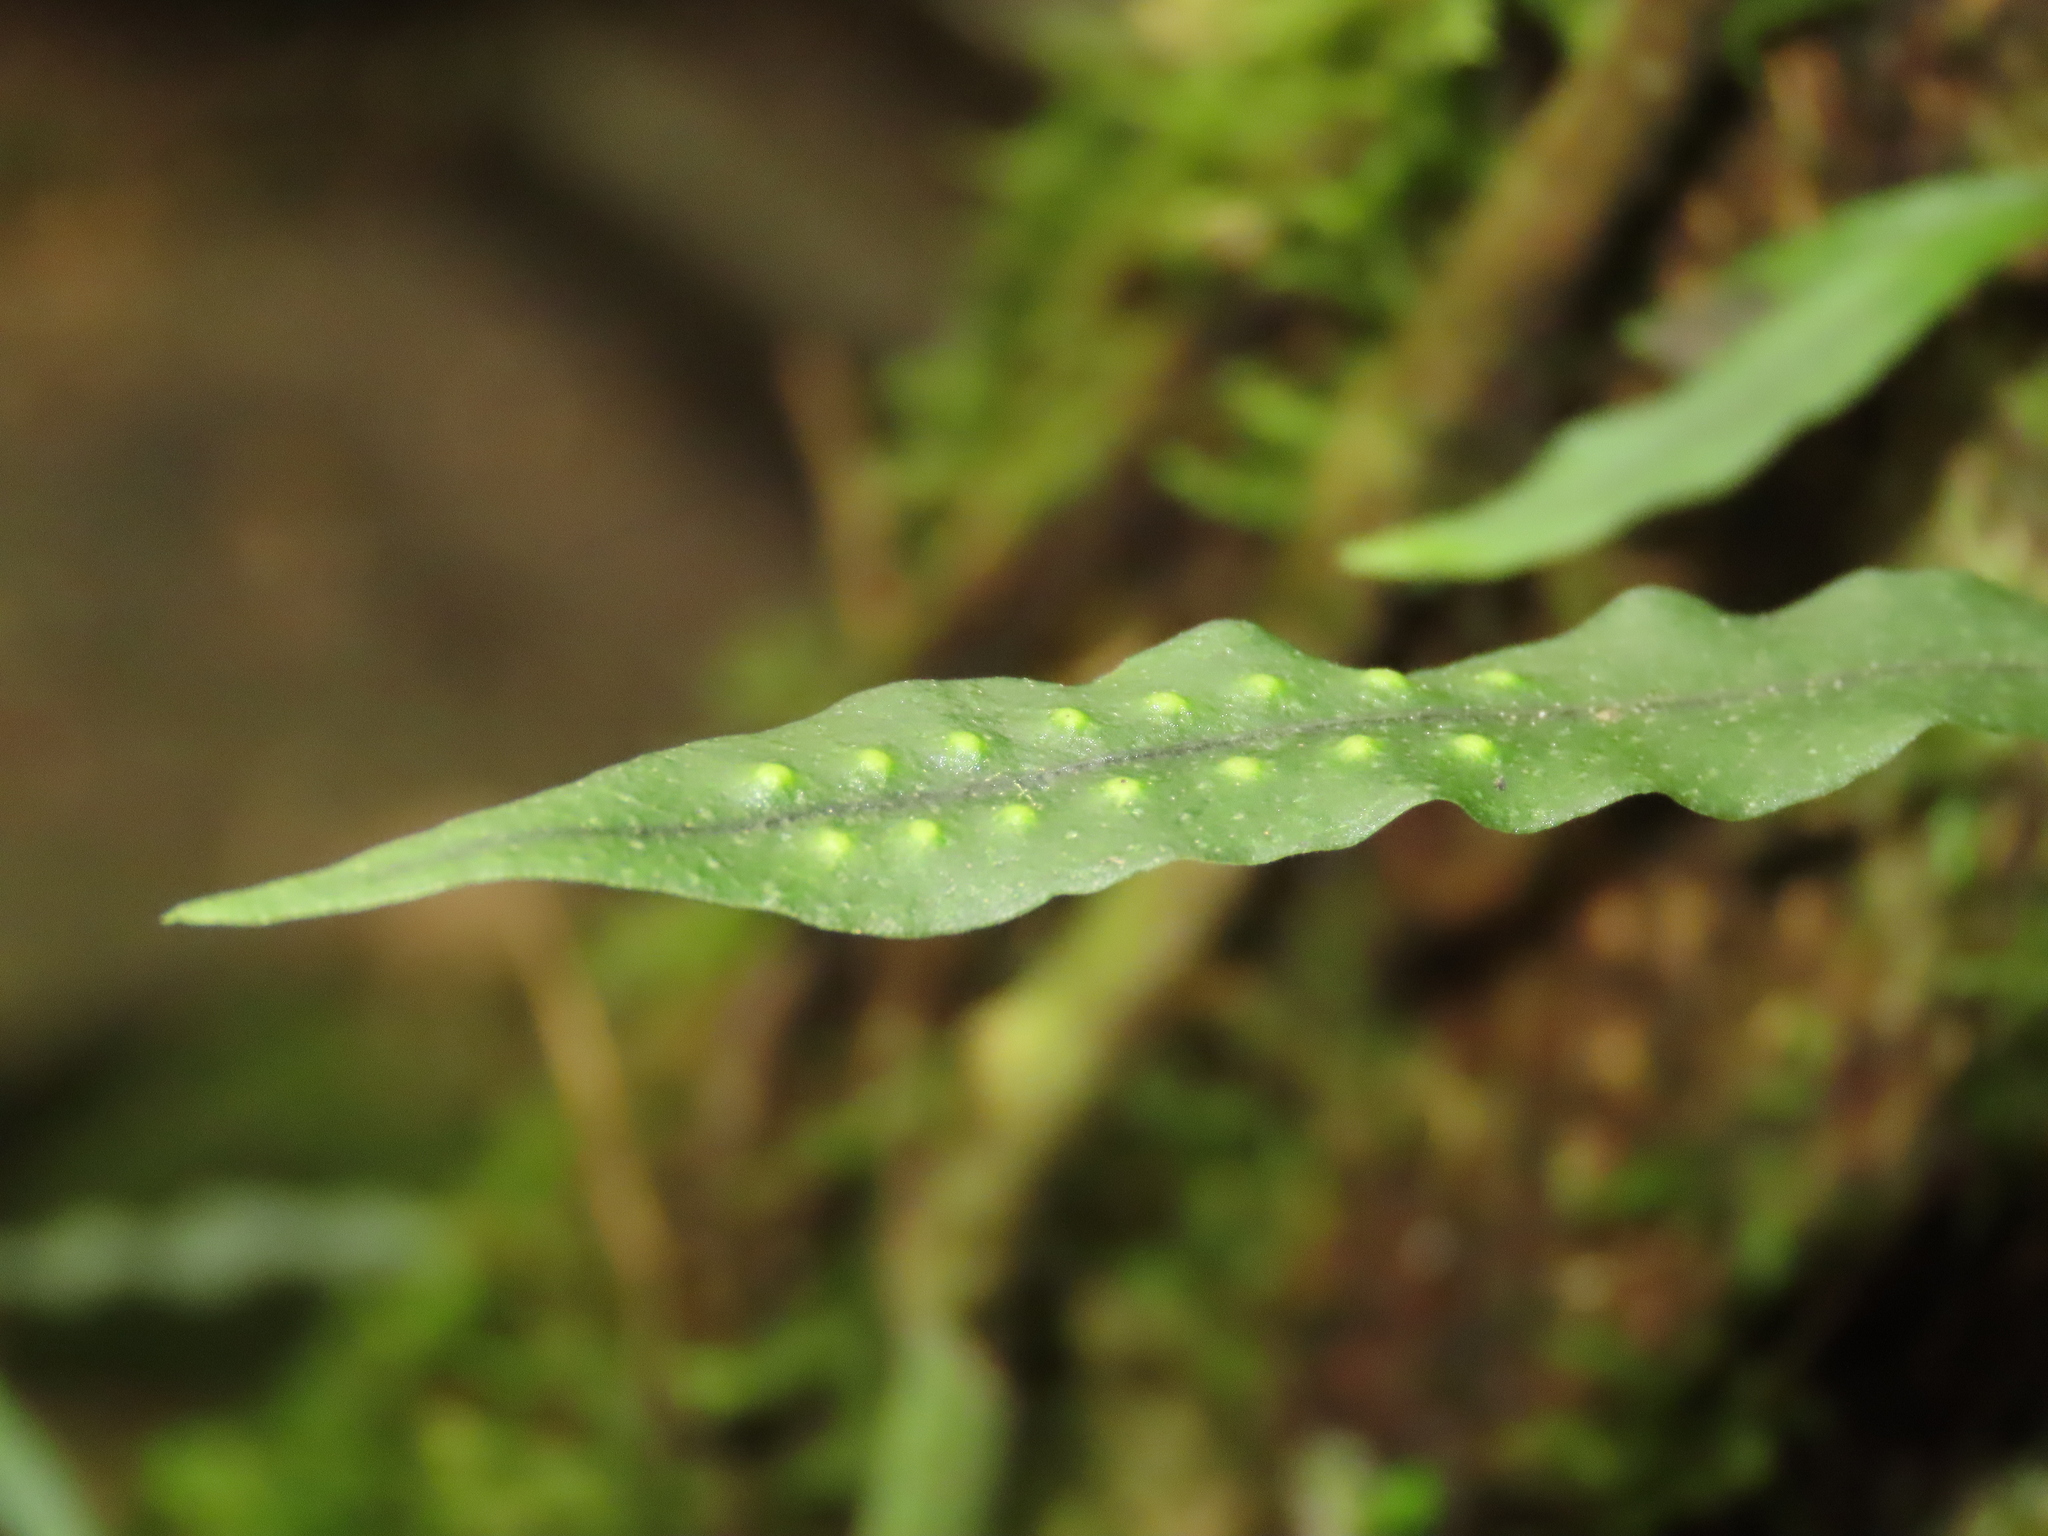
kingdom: Plantae
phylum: Tracheophyta
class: Polypodiopsida
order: Polypodiales
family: Polypodiaceae
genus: Lepisorus
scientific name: Lepisorus tosaensis
